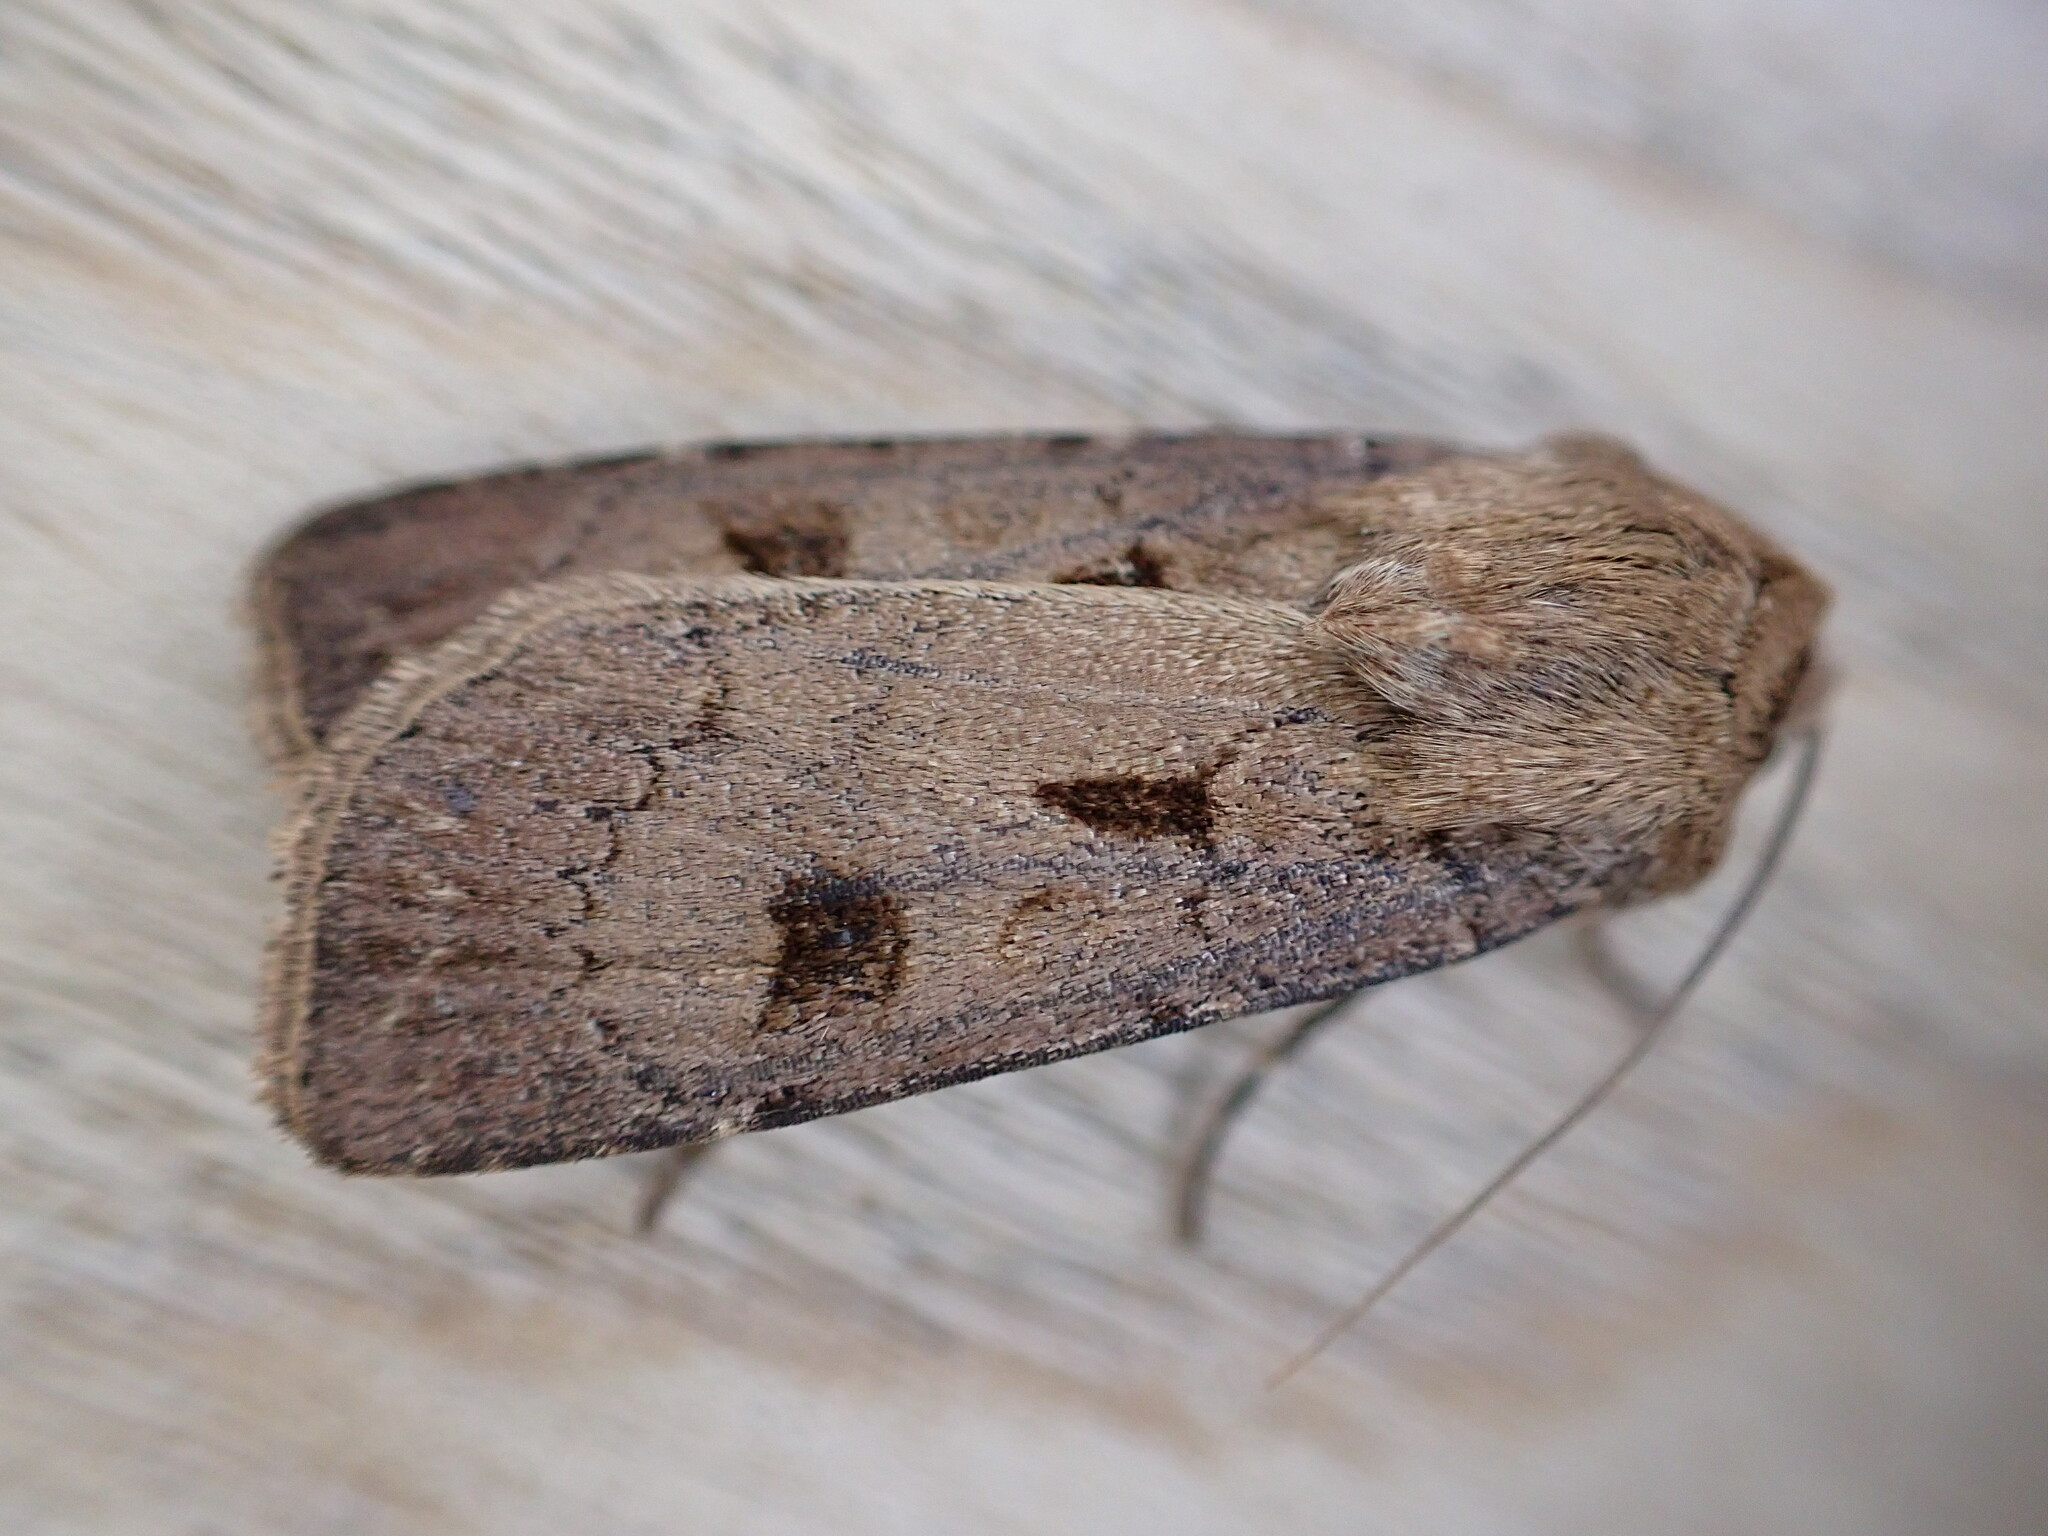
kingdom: Animalia
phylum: Arthropoda
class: Insecta
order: Lepidoptera
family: Noctuidae
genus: Agrotis
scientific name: Agrotis exclamationis
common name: Heart and dart
